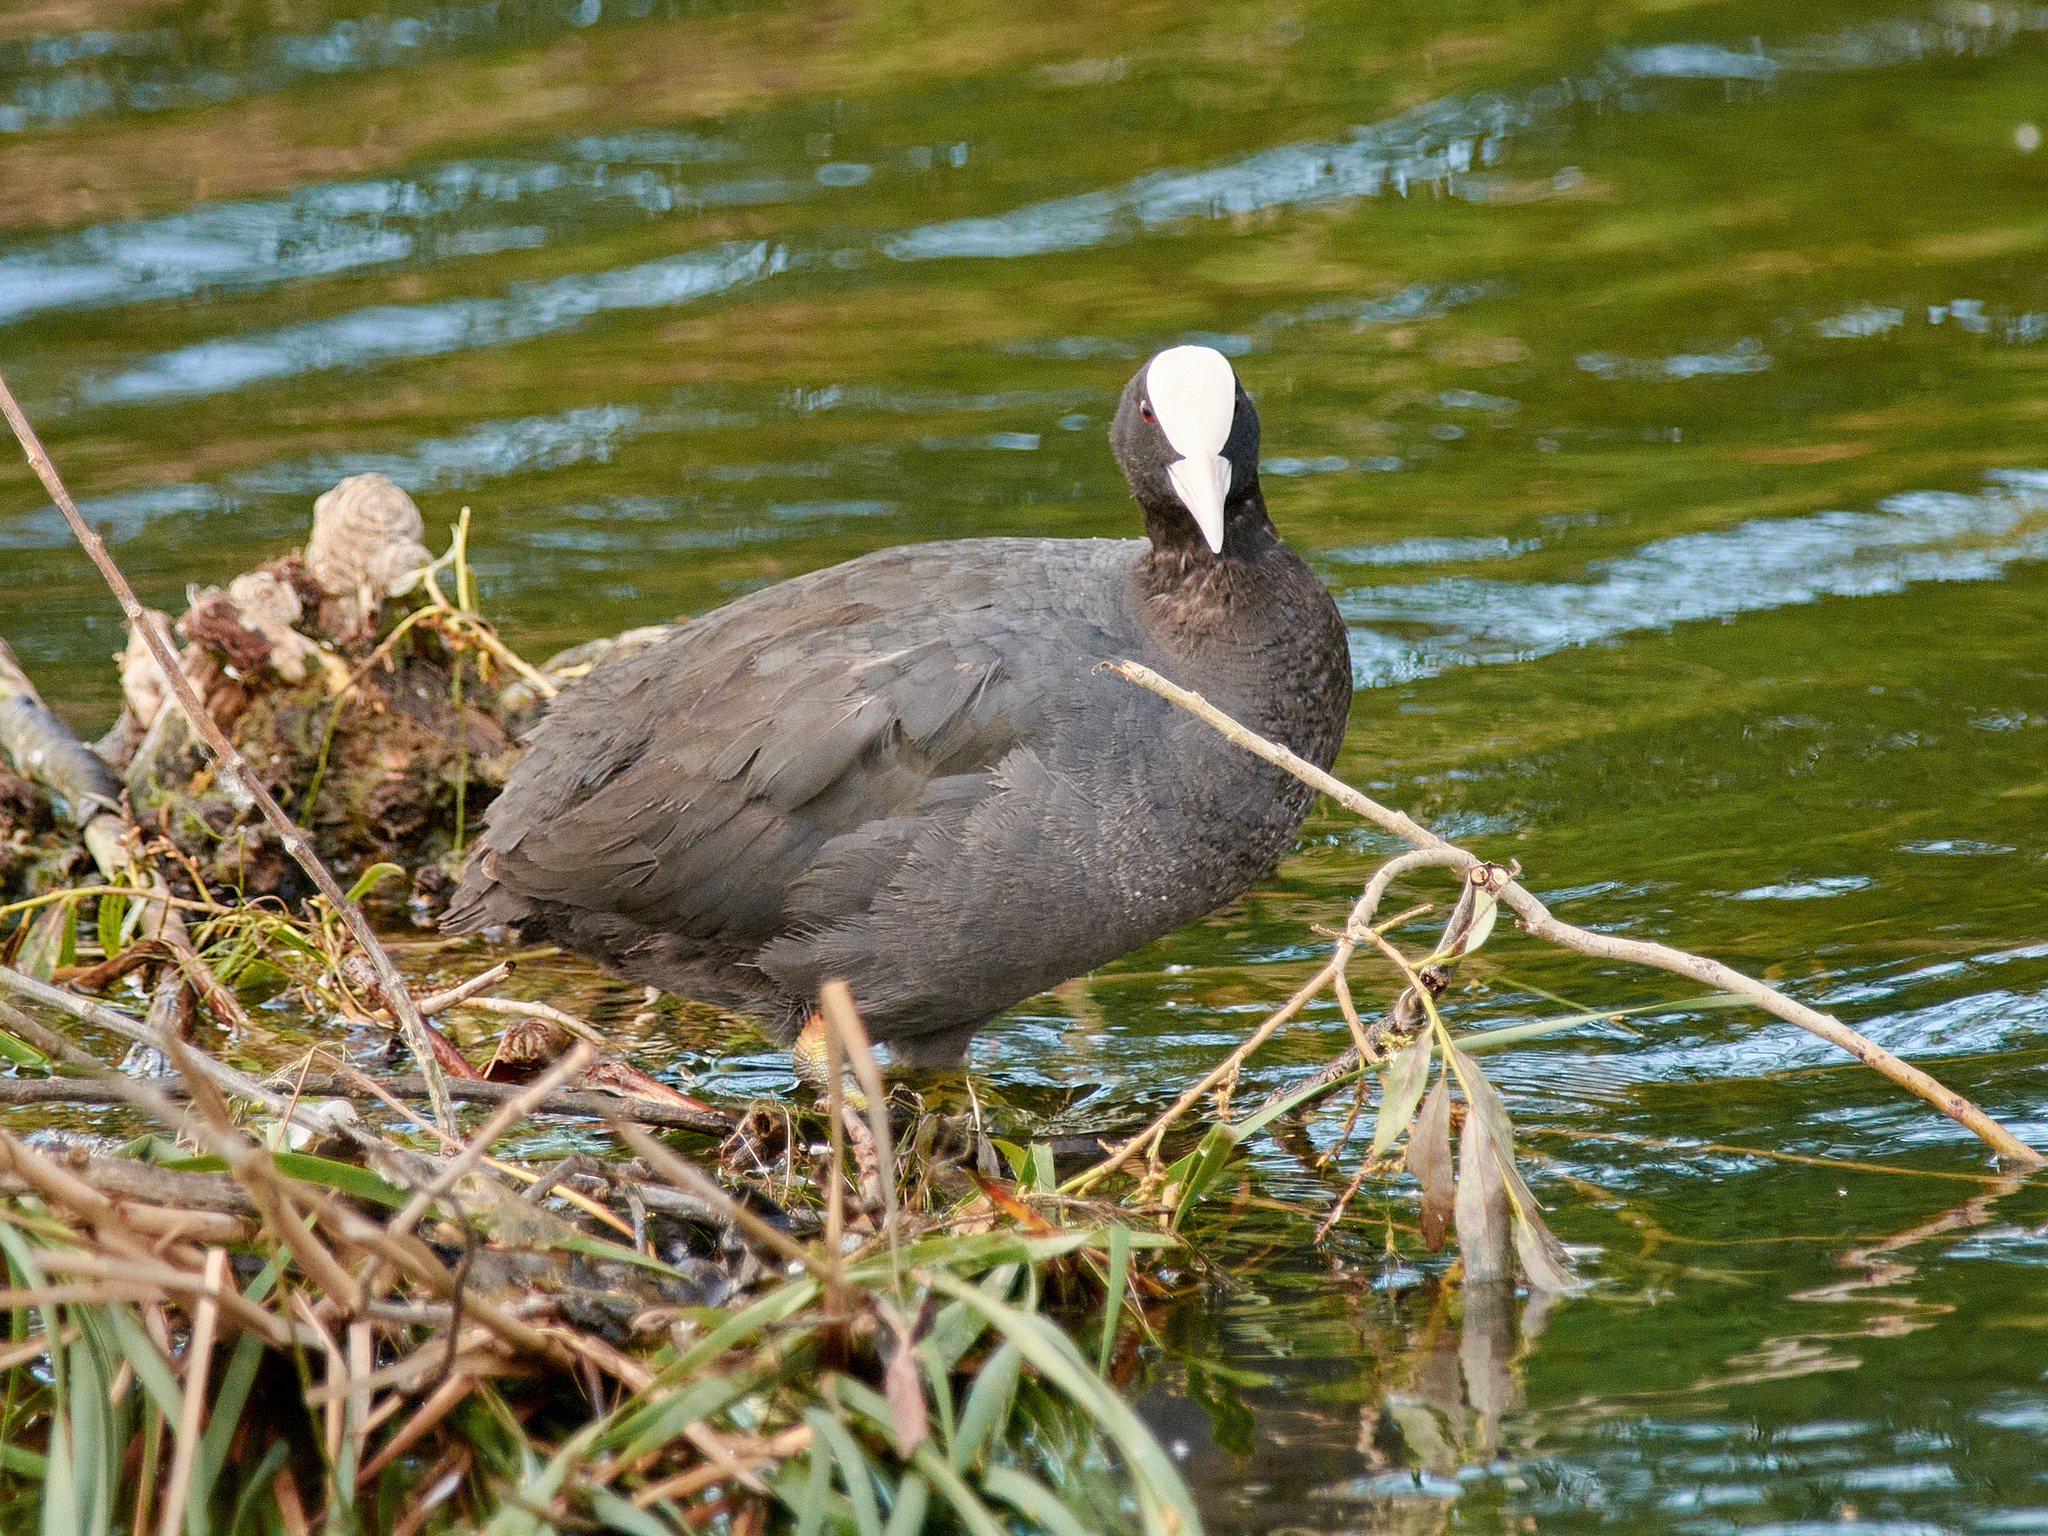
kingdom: Animalia
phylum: Chordata
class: Aves
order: Gruiformes
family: Rallidae
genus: Fulica
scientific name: Fulica atra
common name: Eurasian coot
